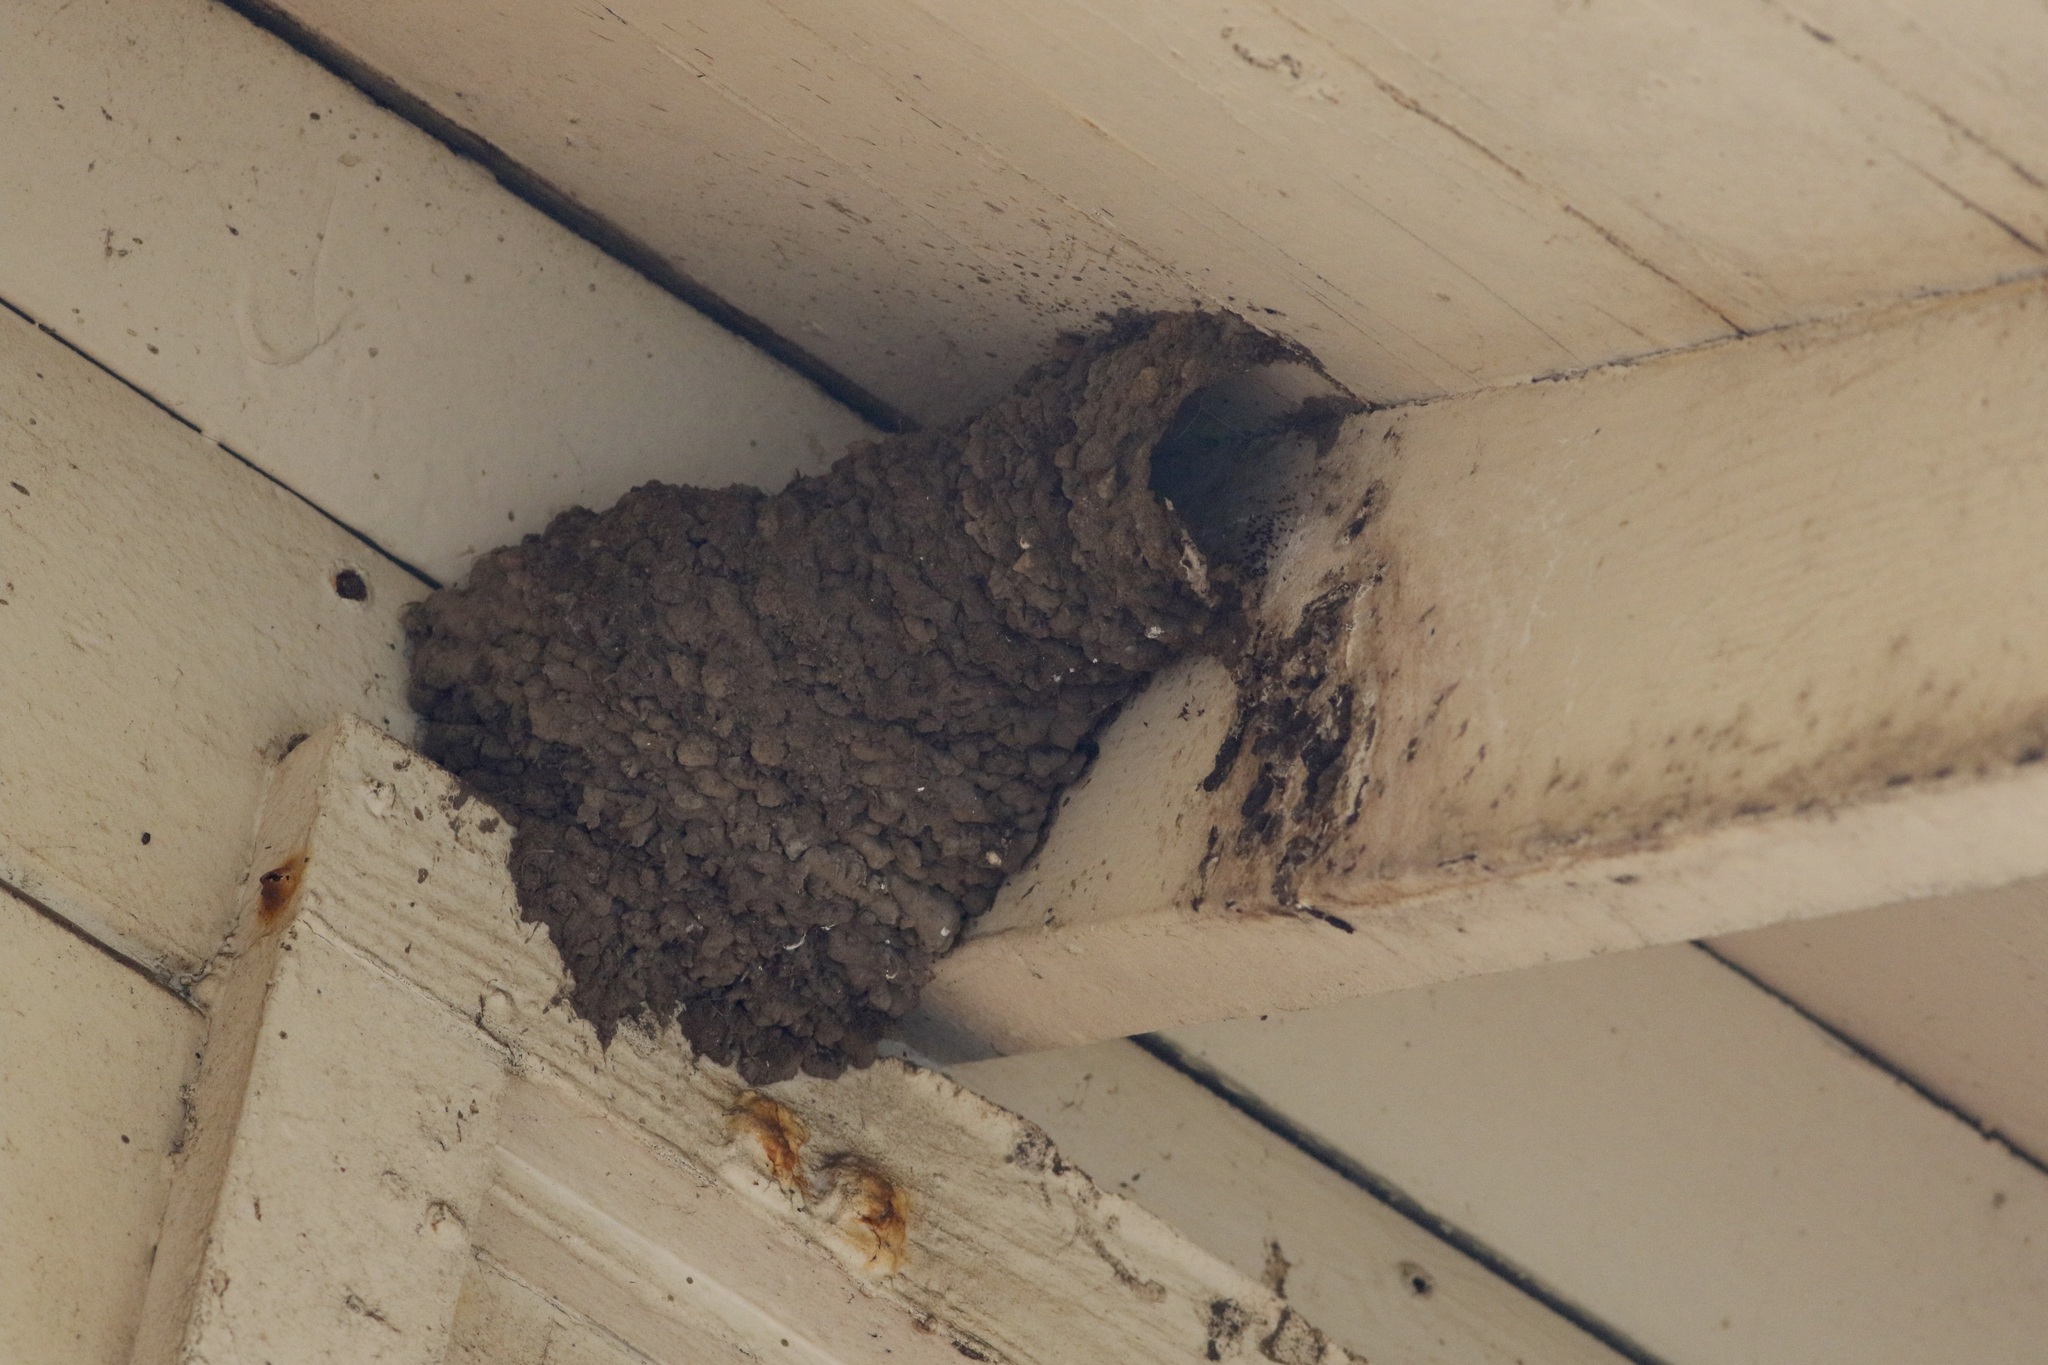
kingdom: Animalia
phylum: Chordata
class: Aves
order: Passeriformes
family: Hirundinidae
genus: Petrochelidon
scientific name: Petrochelidon pyrrhonota
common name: American cliff swallow
